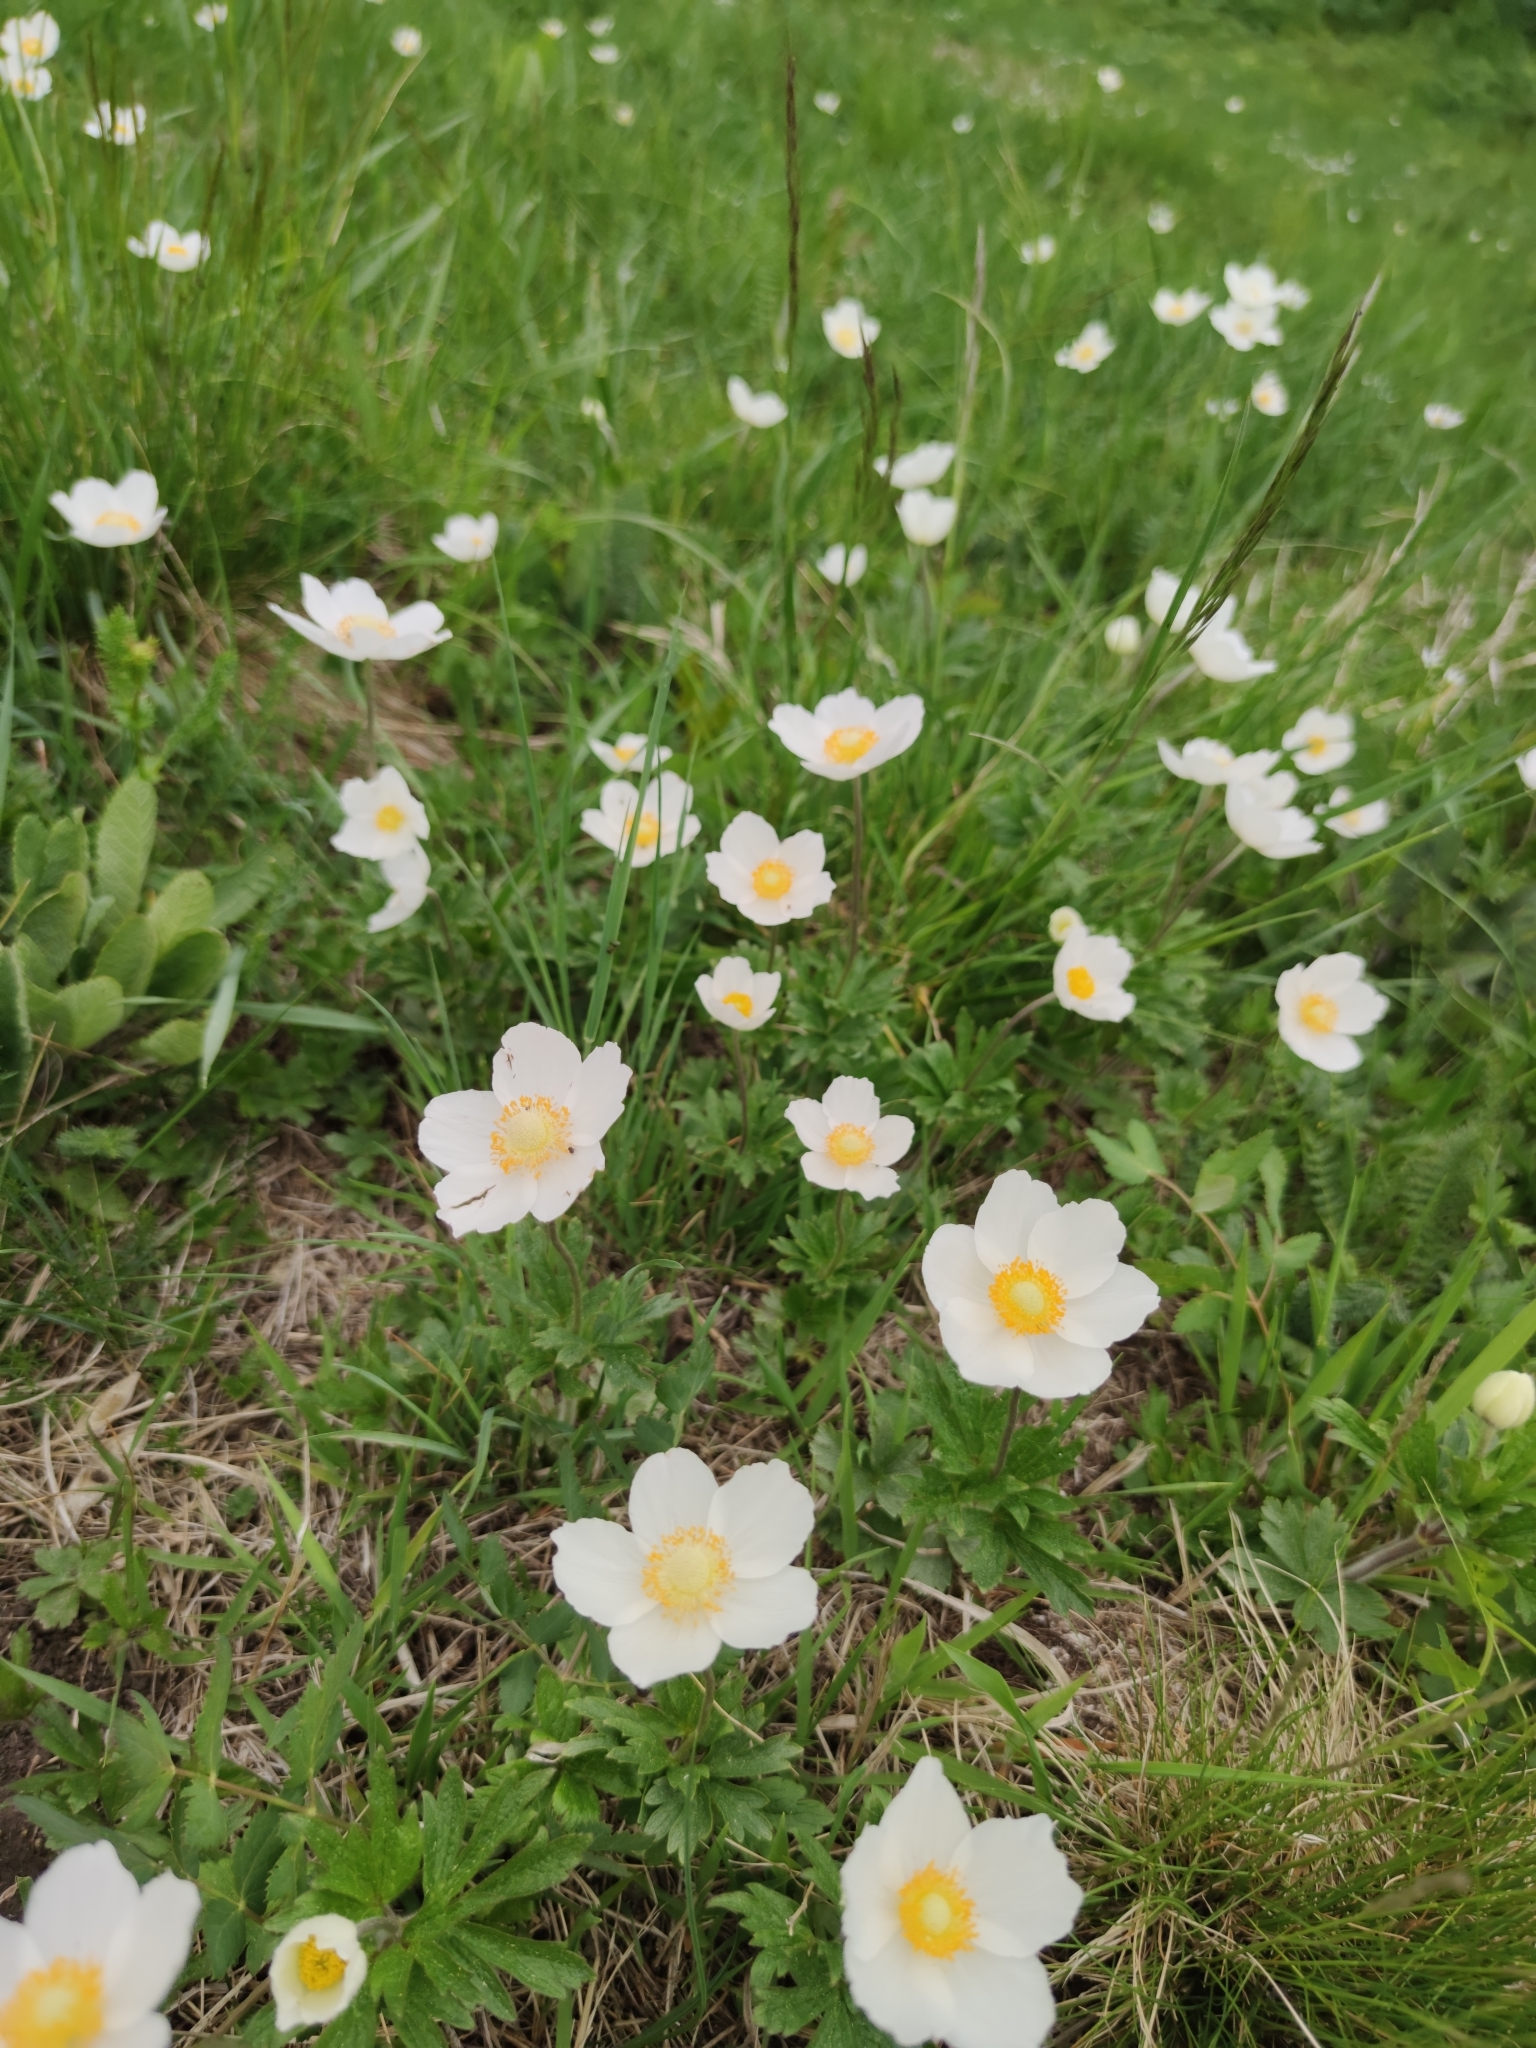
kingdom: Plantae
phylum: Tracheophyta
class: Magnoliopsida
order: Ranunculales
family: Ranunculaceae
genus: Anemone
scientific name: Anemone sylvestris
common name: Snowdrop anemone
